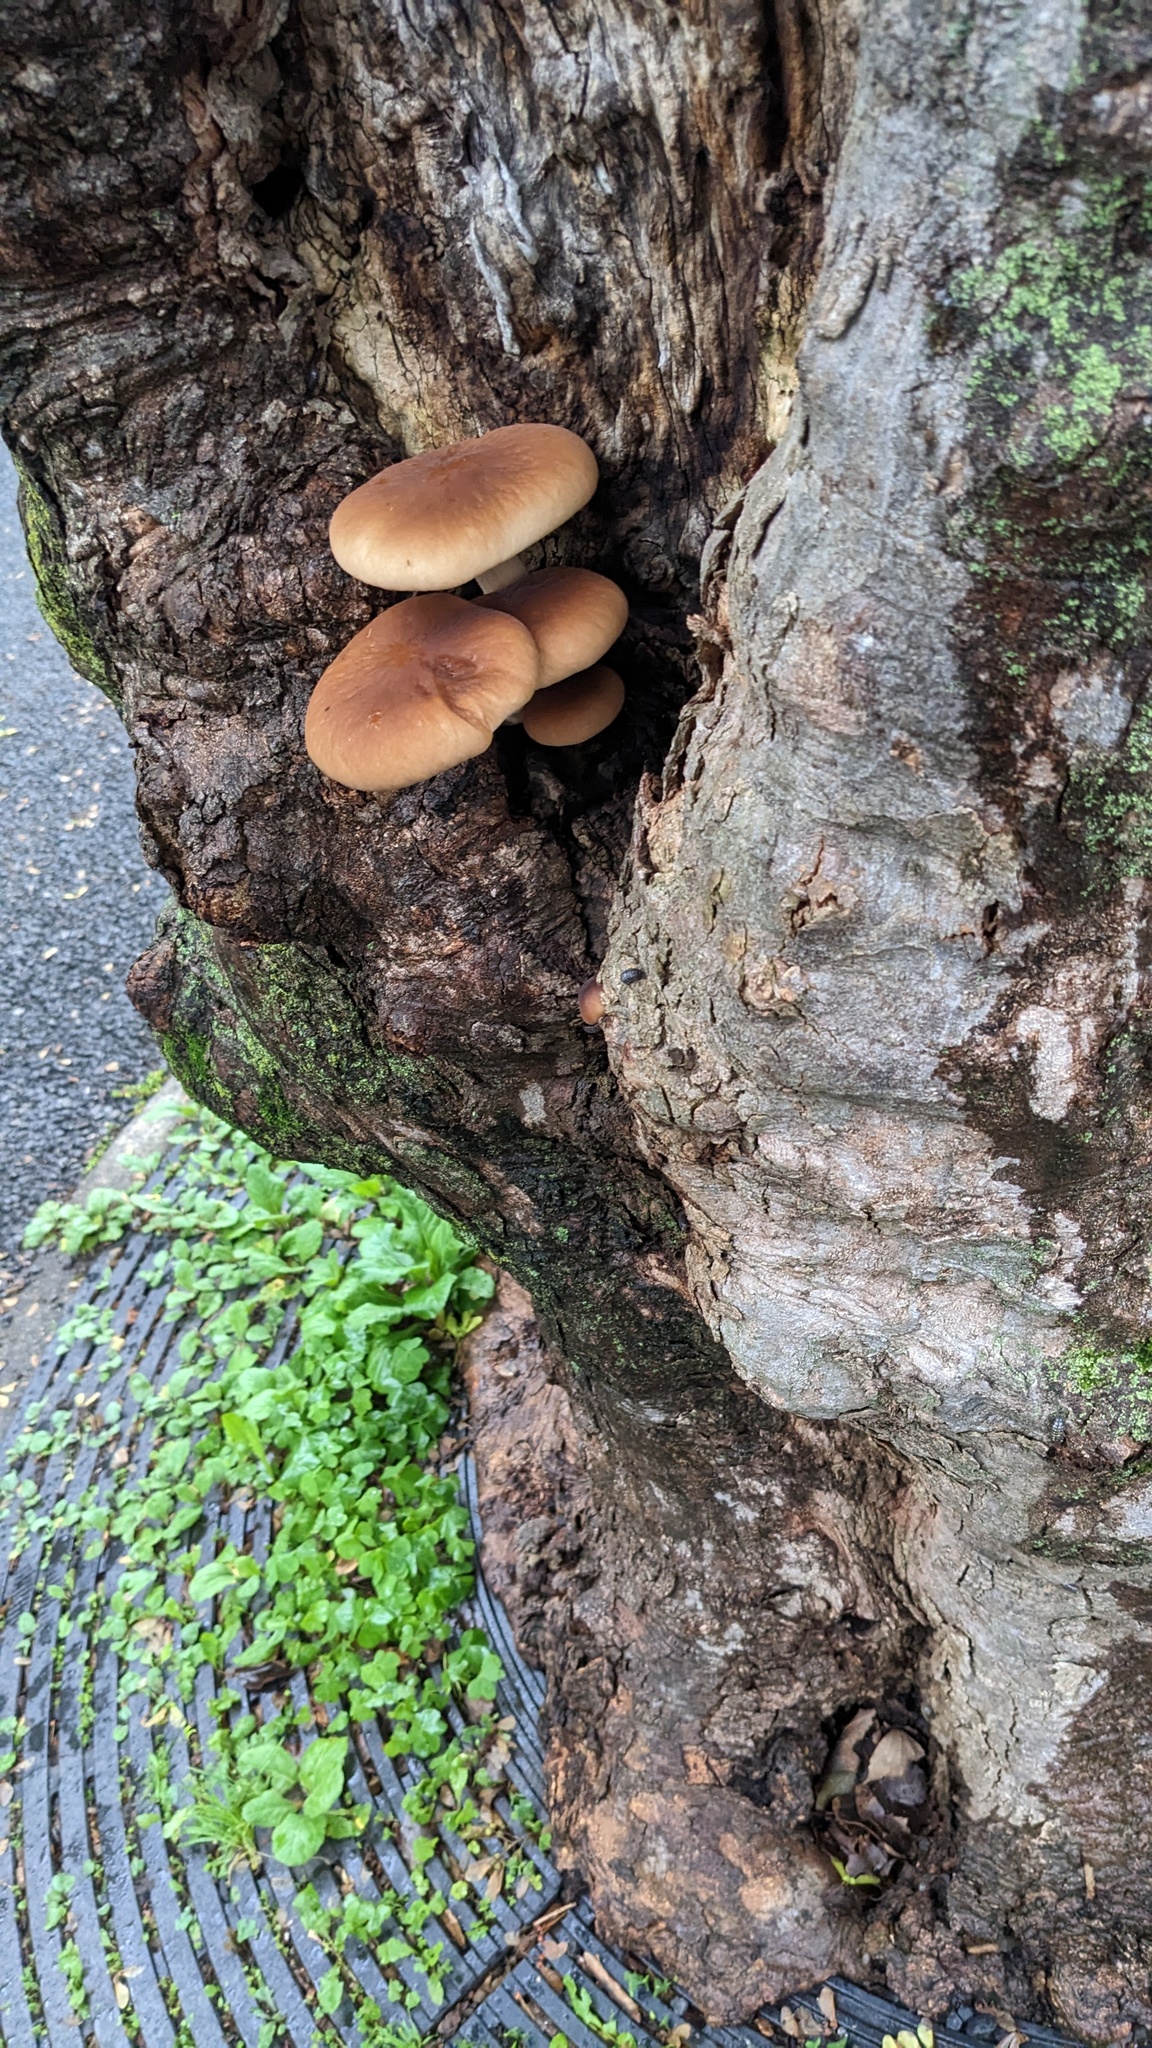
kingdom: Fungi
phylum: Basidiomycota
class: Agaricomycetes
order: Agaricales
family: Tubariaceae
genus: Cyclocybe
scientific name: Cyclocybe cylindracea
